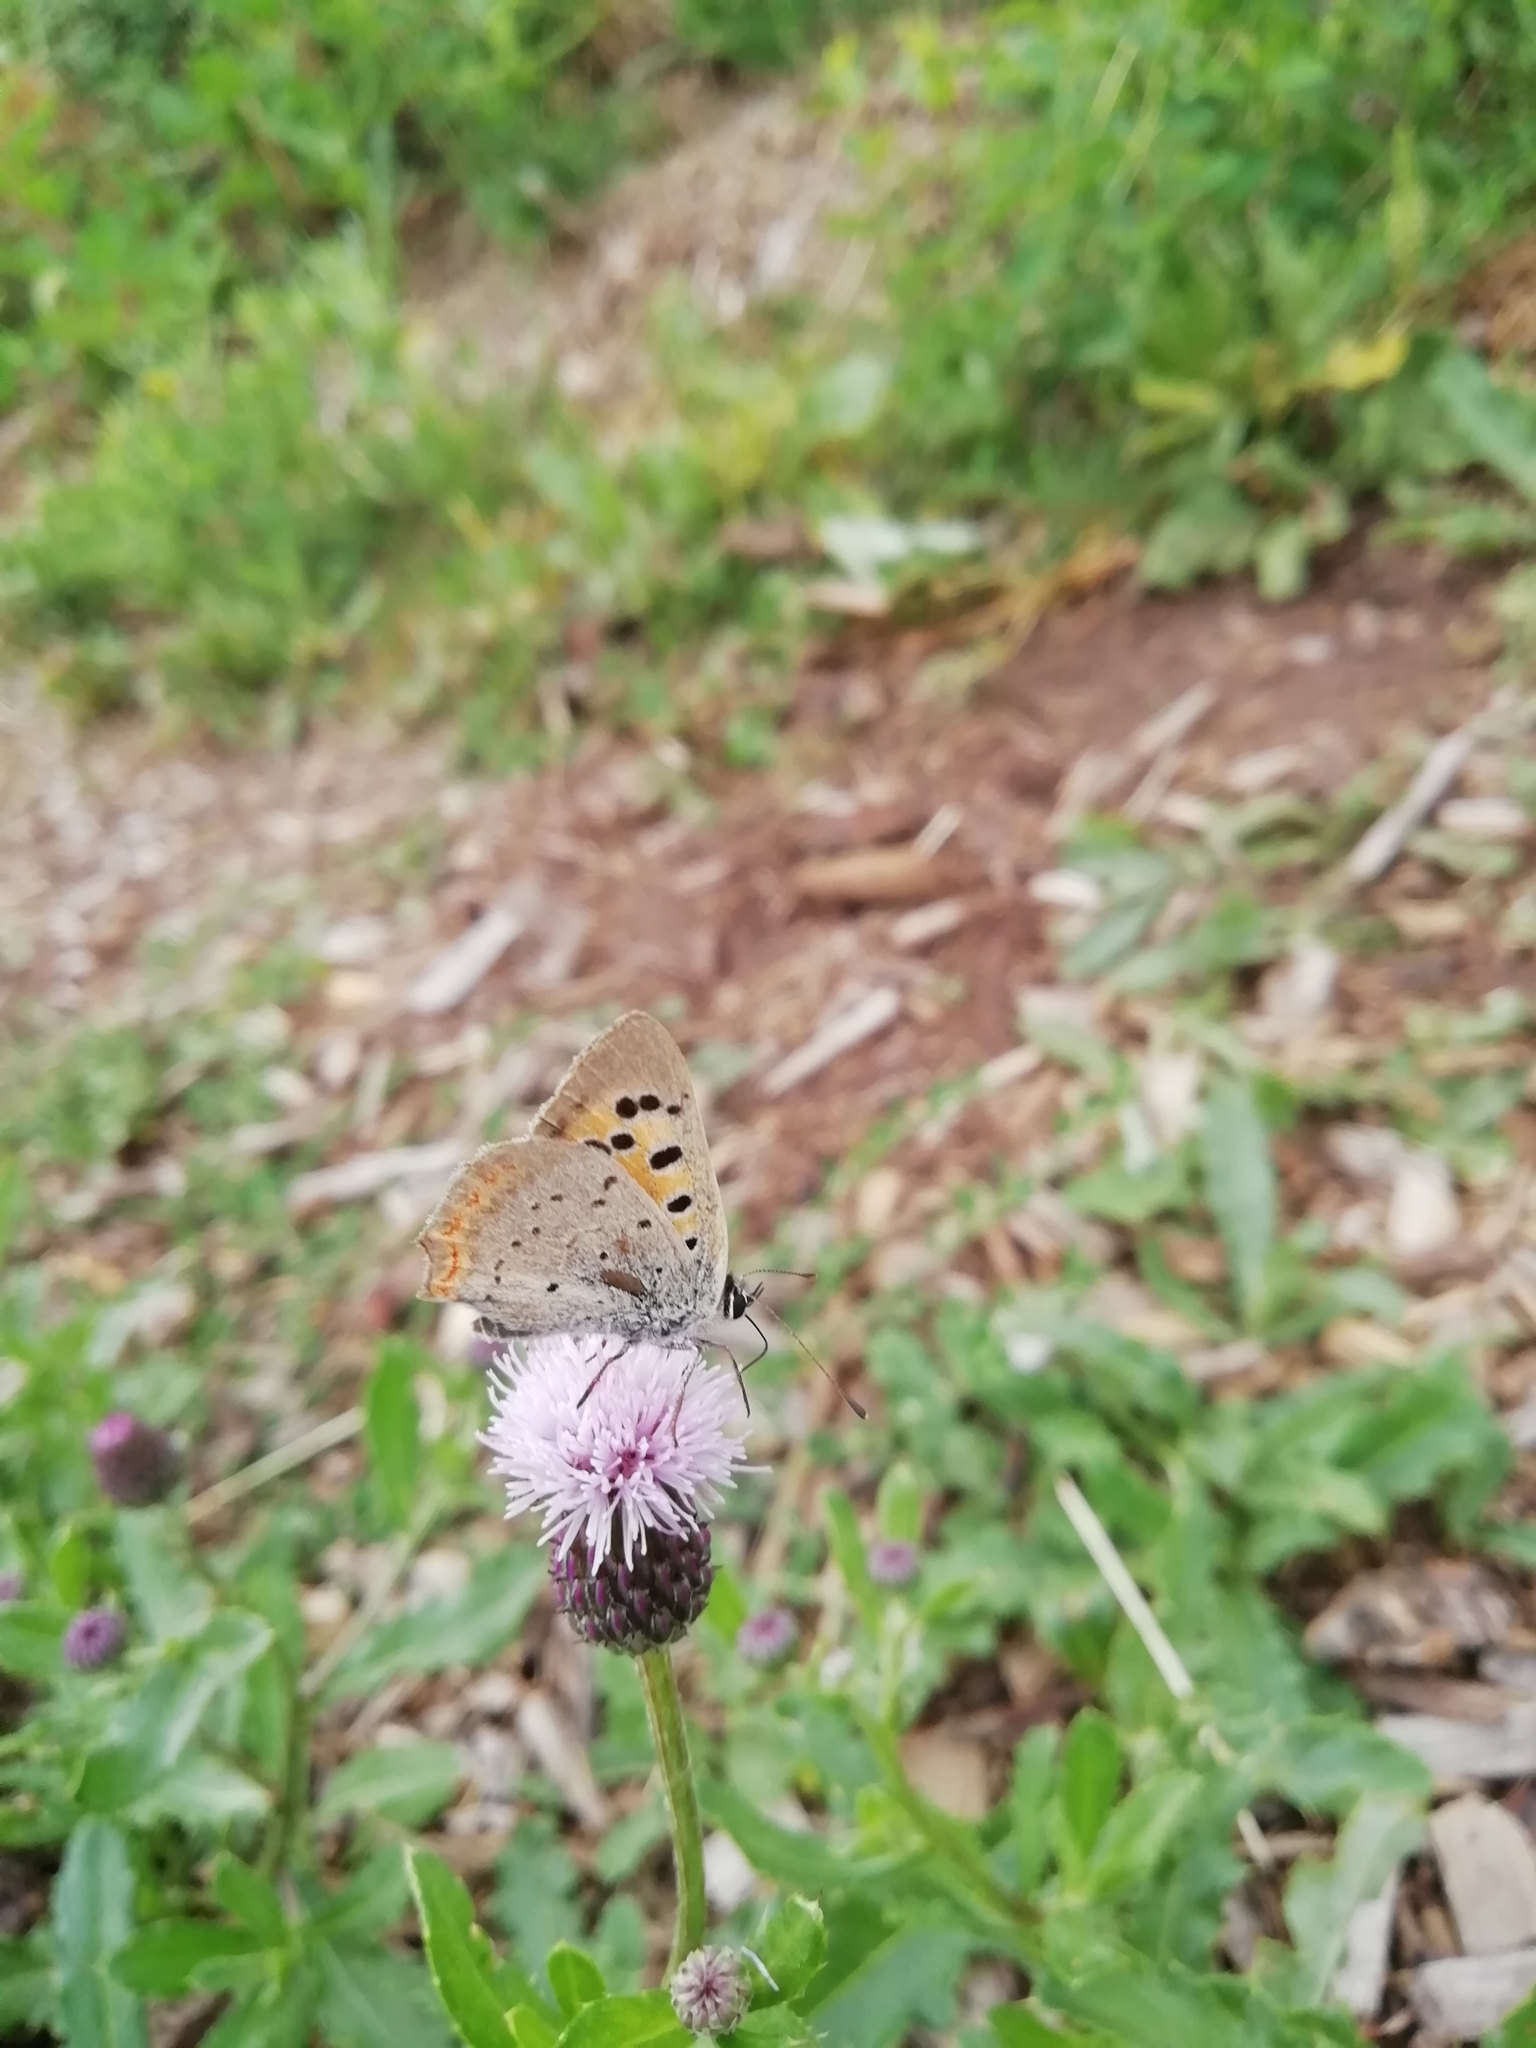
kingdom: Animalia
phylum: Arthropoda
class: Insecta
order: Lepidoptera
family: Lycaenidae
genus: Lycaena
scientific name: Lycaena phlaeas
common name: Small copper
